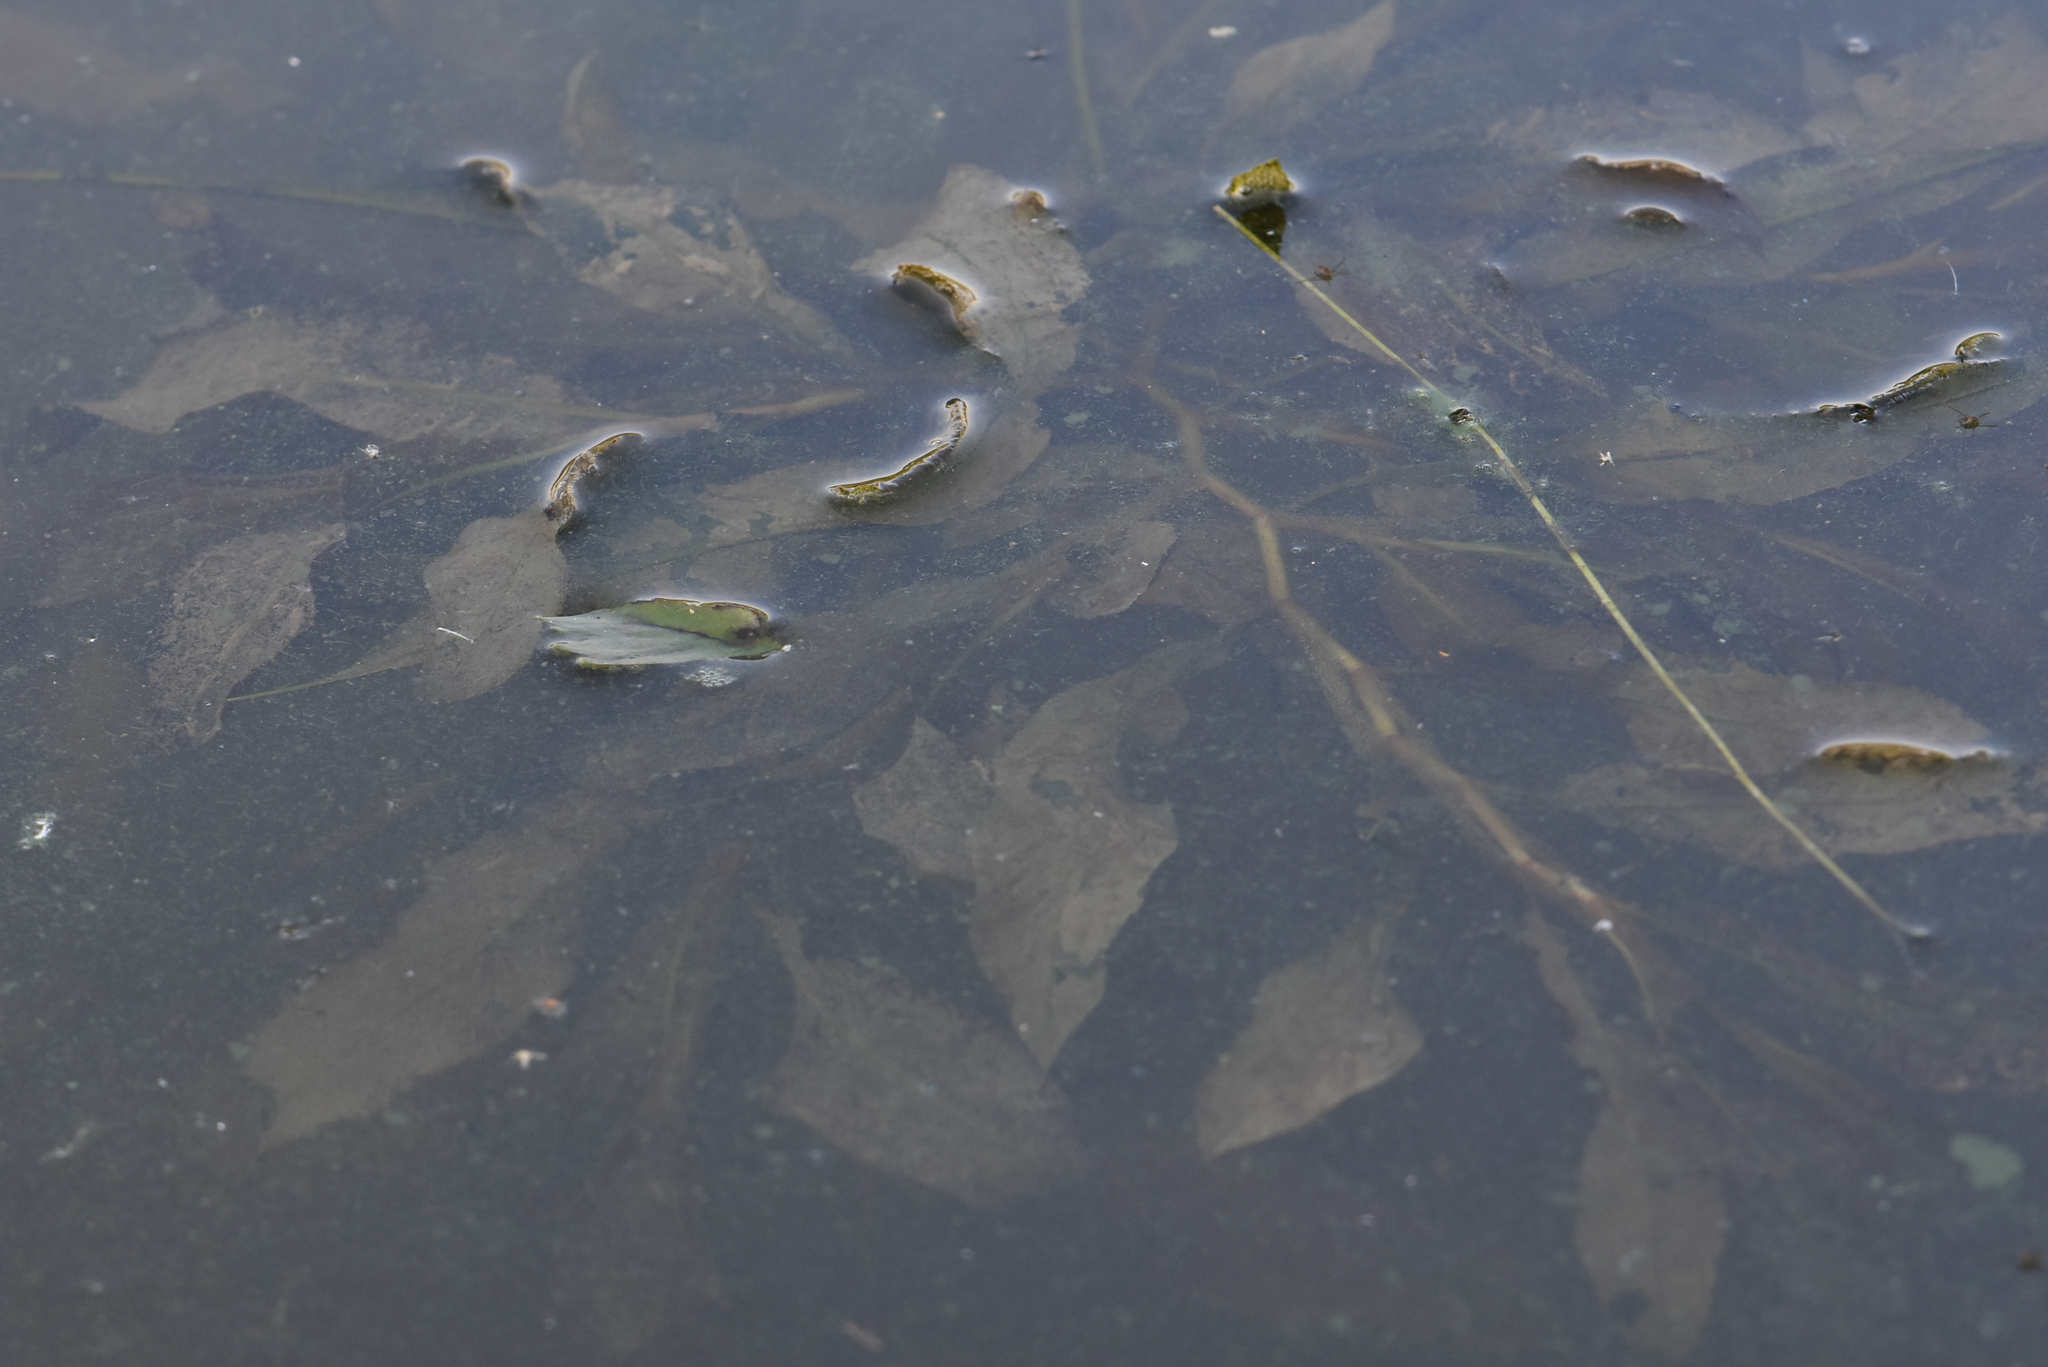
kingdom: Plantae
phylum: Tracheophyta
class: Liliopsida
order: Alismatales
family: Potamogetonaceae
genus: Potamogeton
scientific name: Potamogeton lucens
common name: Shining pondweed
